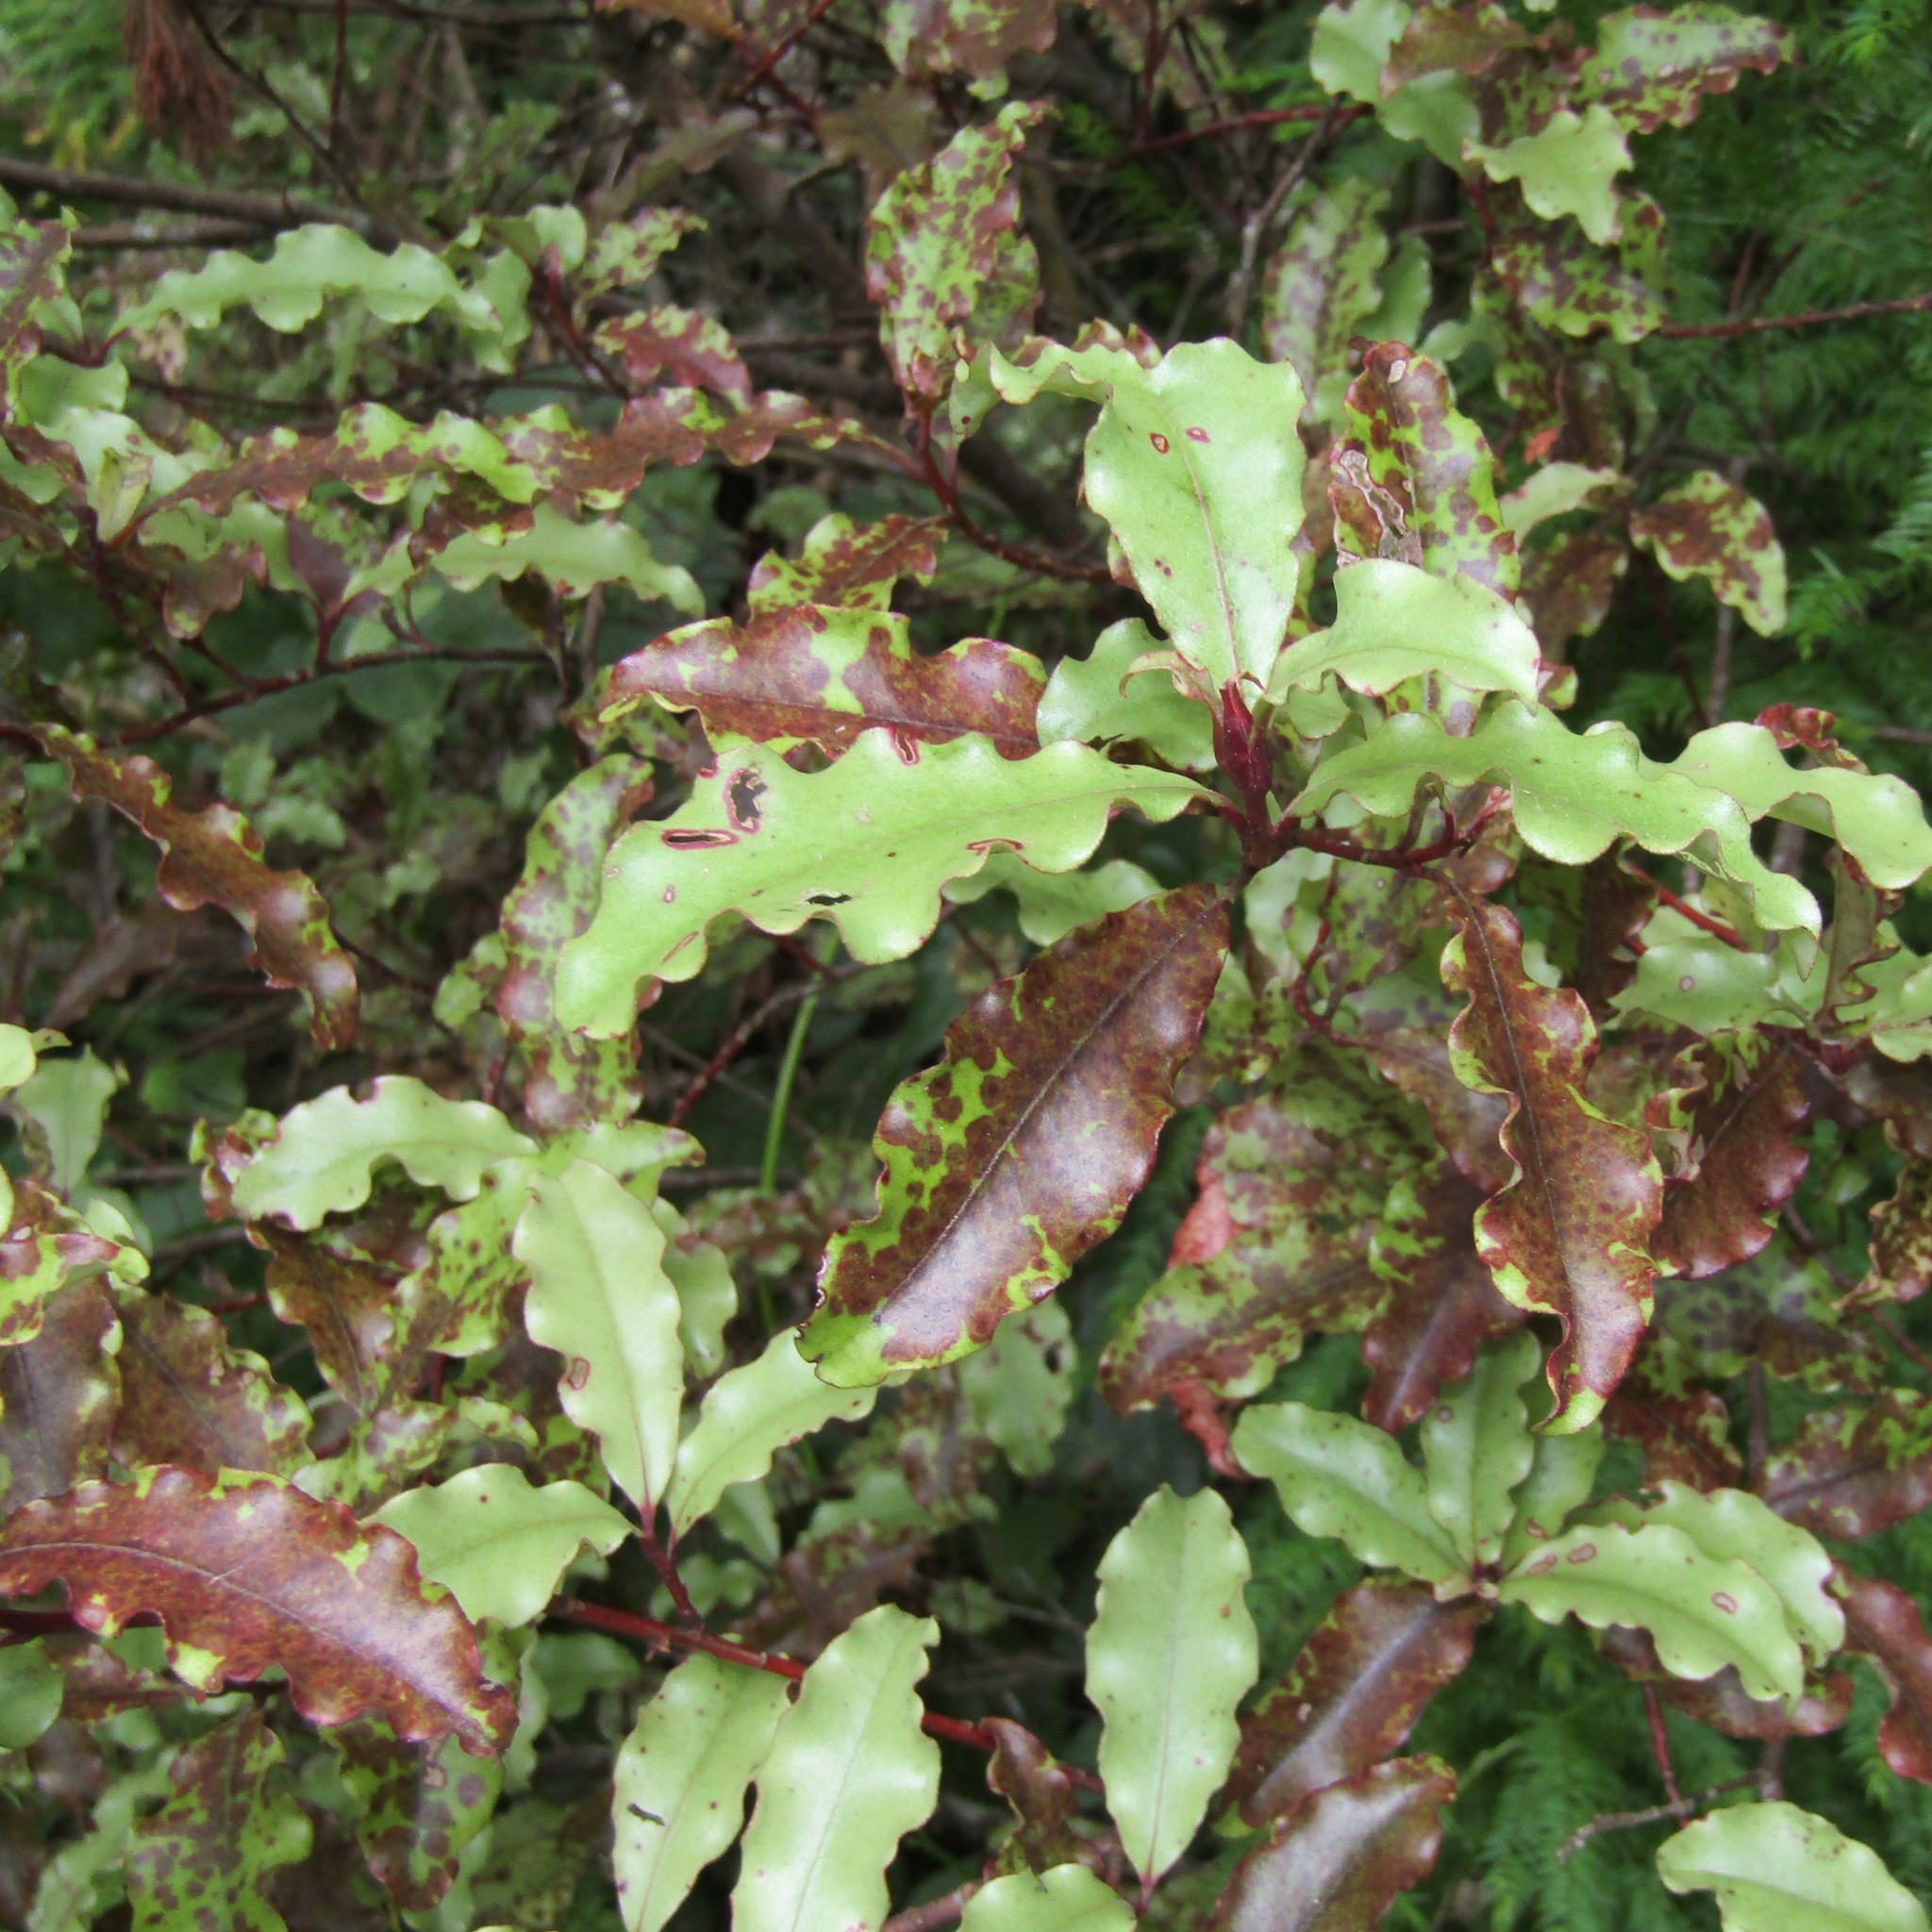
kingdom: Plantae
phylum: Tracheophyta
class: Magnoliopsida
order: Ericales
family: Primulaceae
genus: Myrsine
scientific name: Myrsine australis
